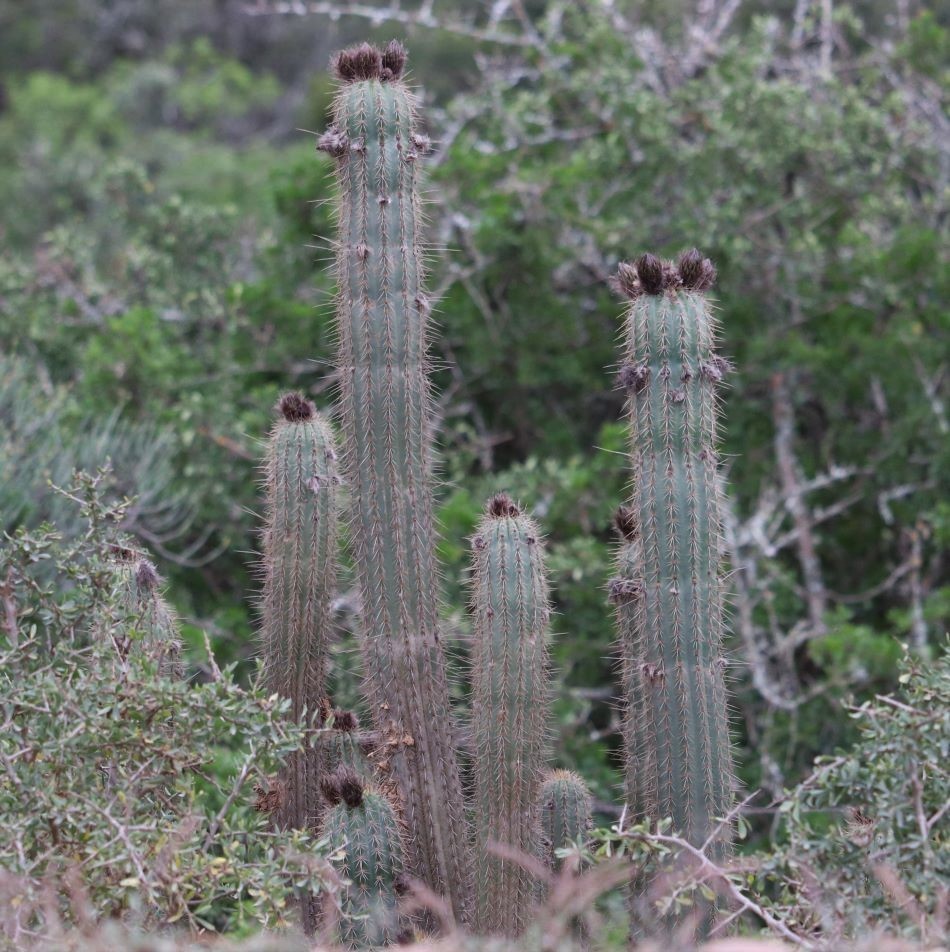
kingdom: Plantae
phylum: Tracheophyta
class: Magnoliopsida
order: Caryophyllales
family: Cactaceae
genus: Soehrensia
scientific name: Soehrensia spachiana
